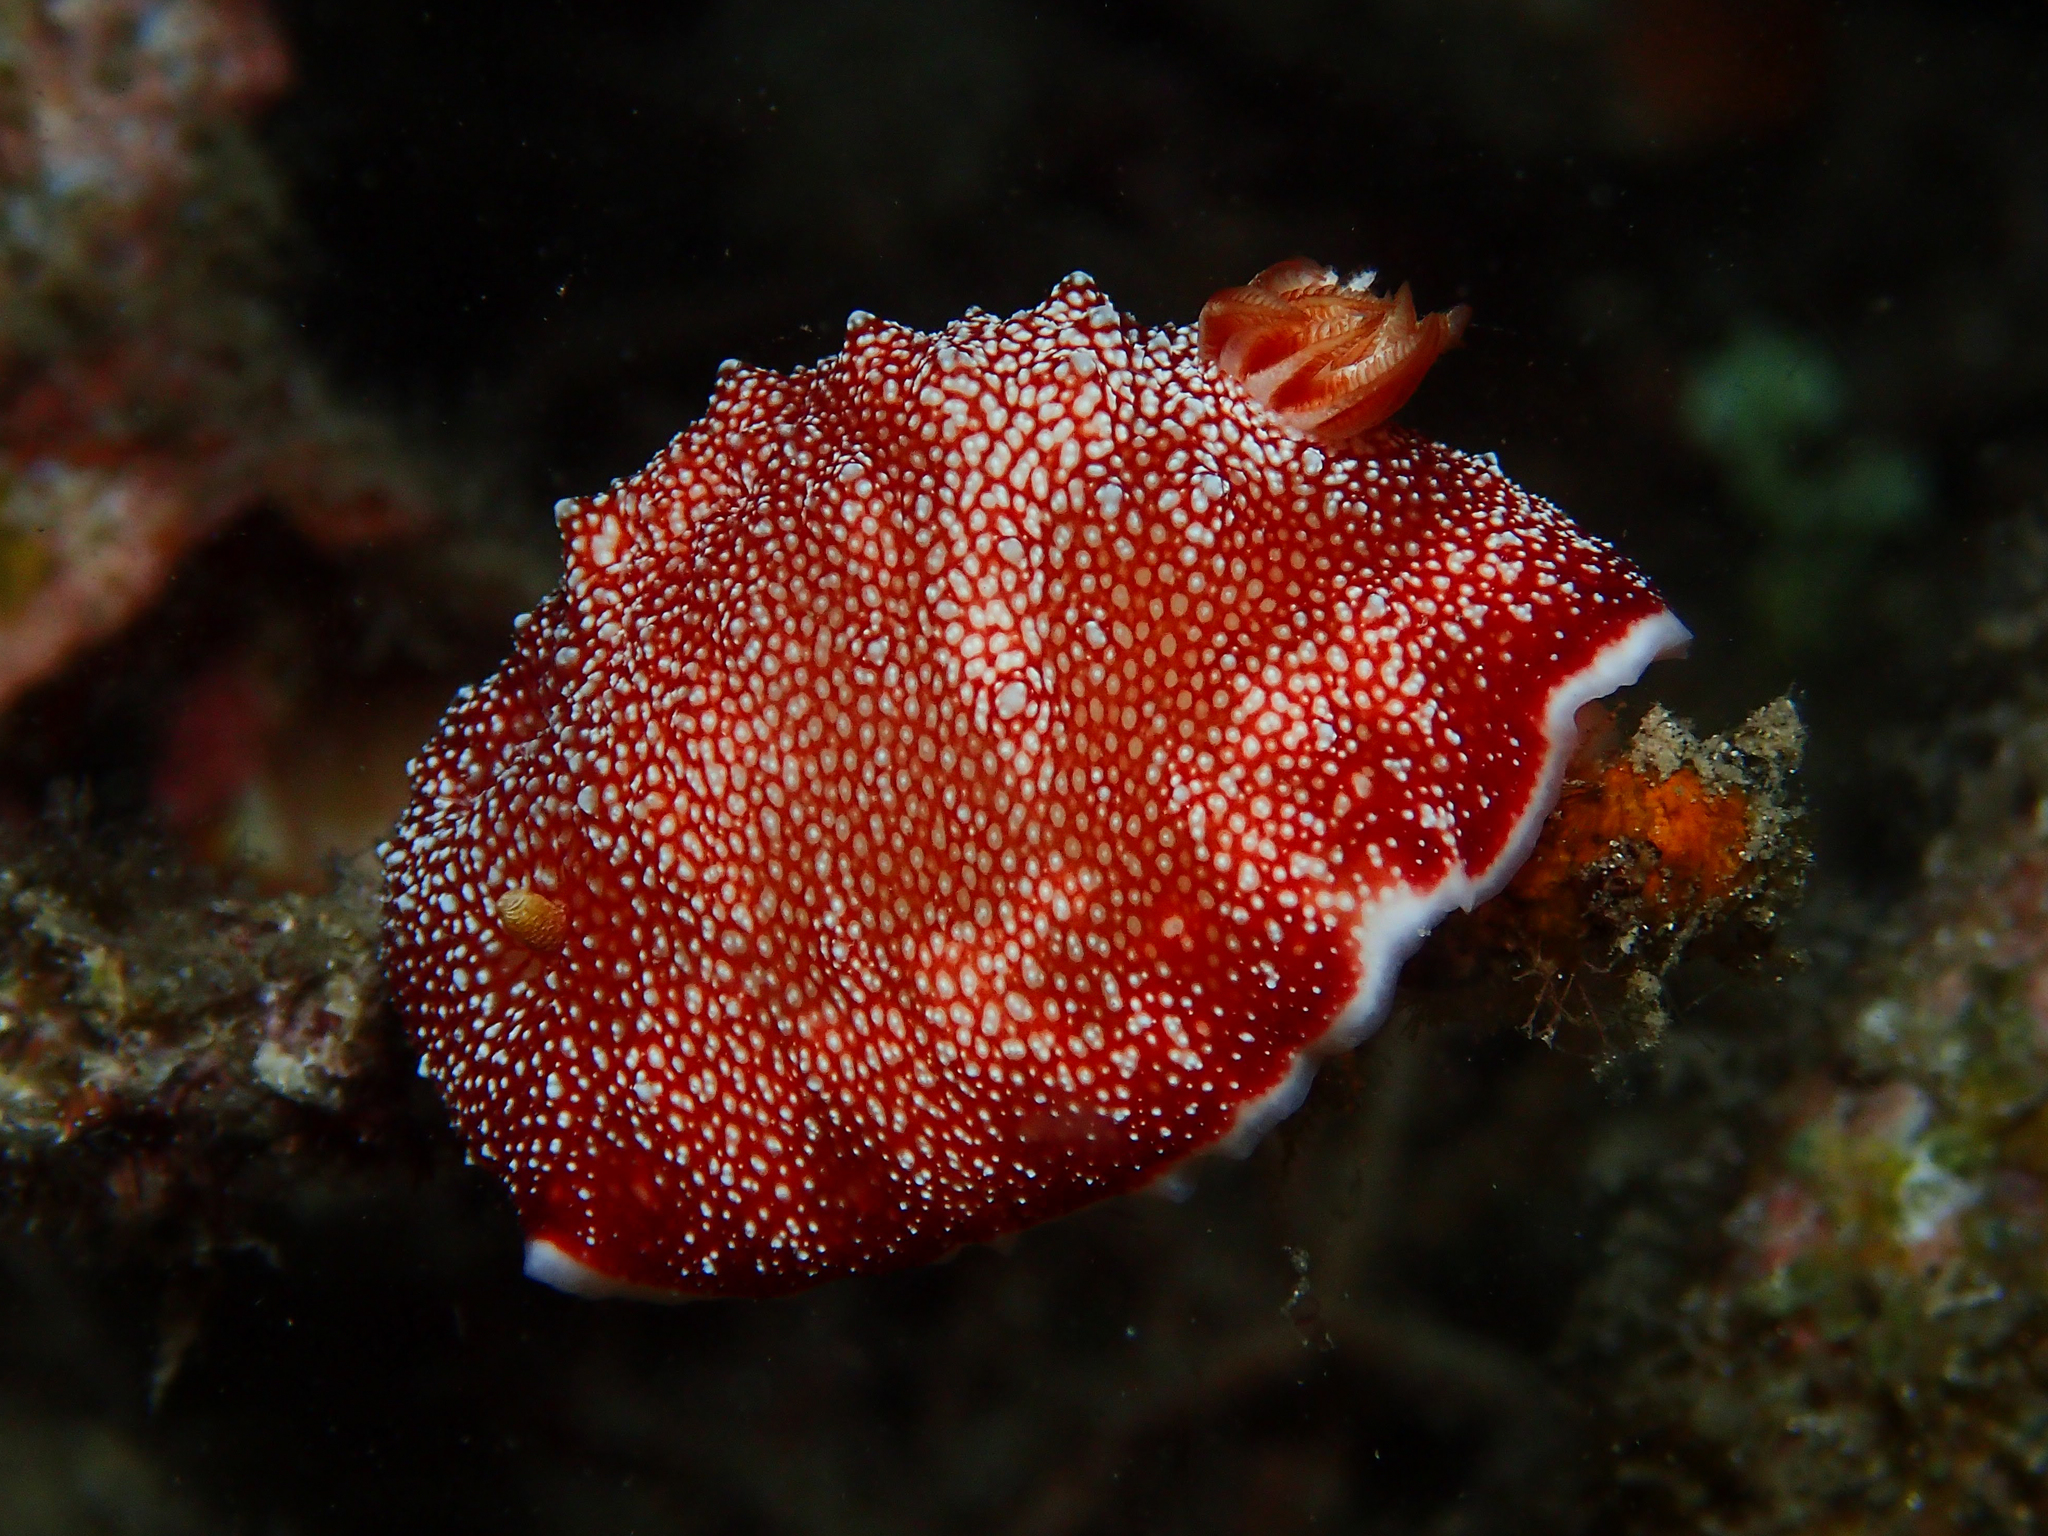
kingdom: Animalia
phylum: Mollusca
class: Gastropoda
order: Nudibranchia
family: Chromodorididae
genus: Goniobranchus
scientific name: Goniobranchus reticulatus
